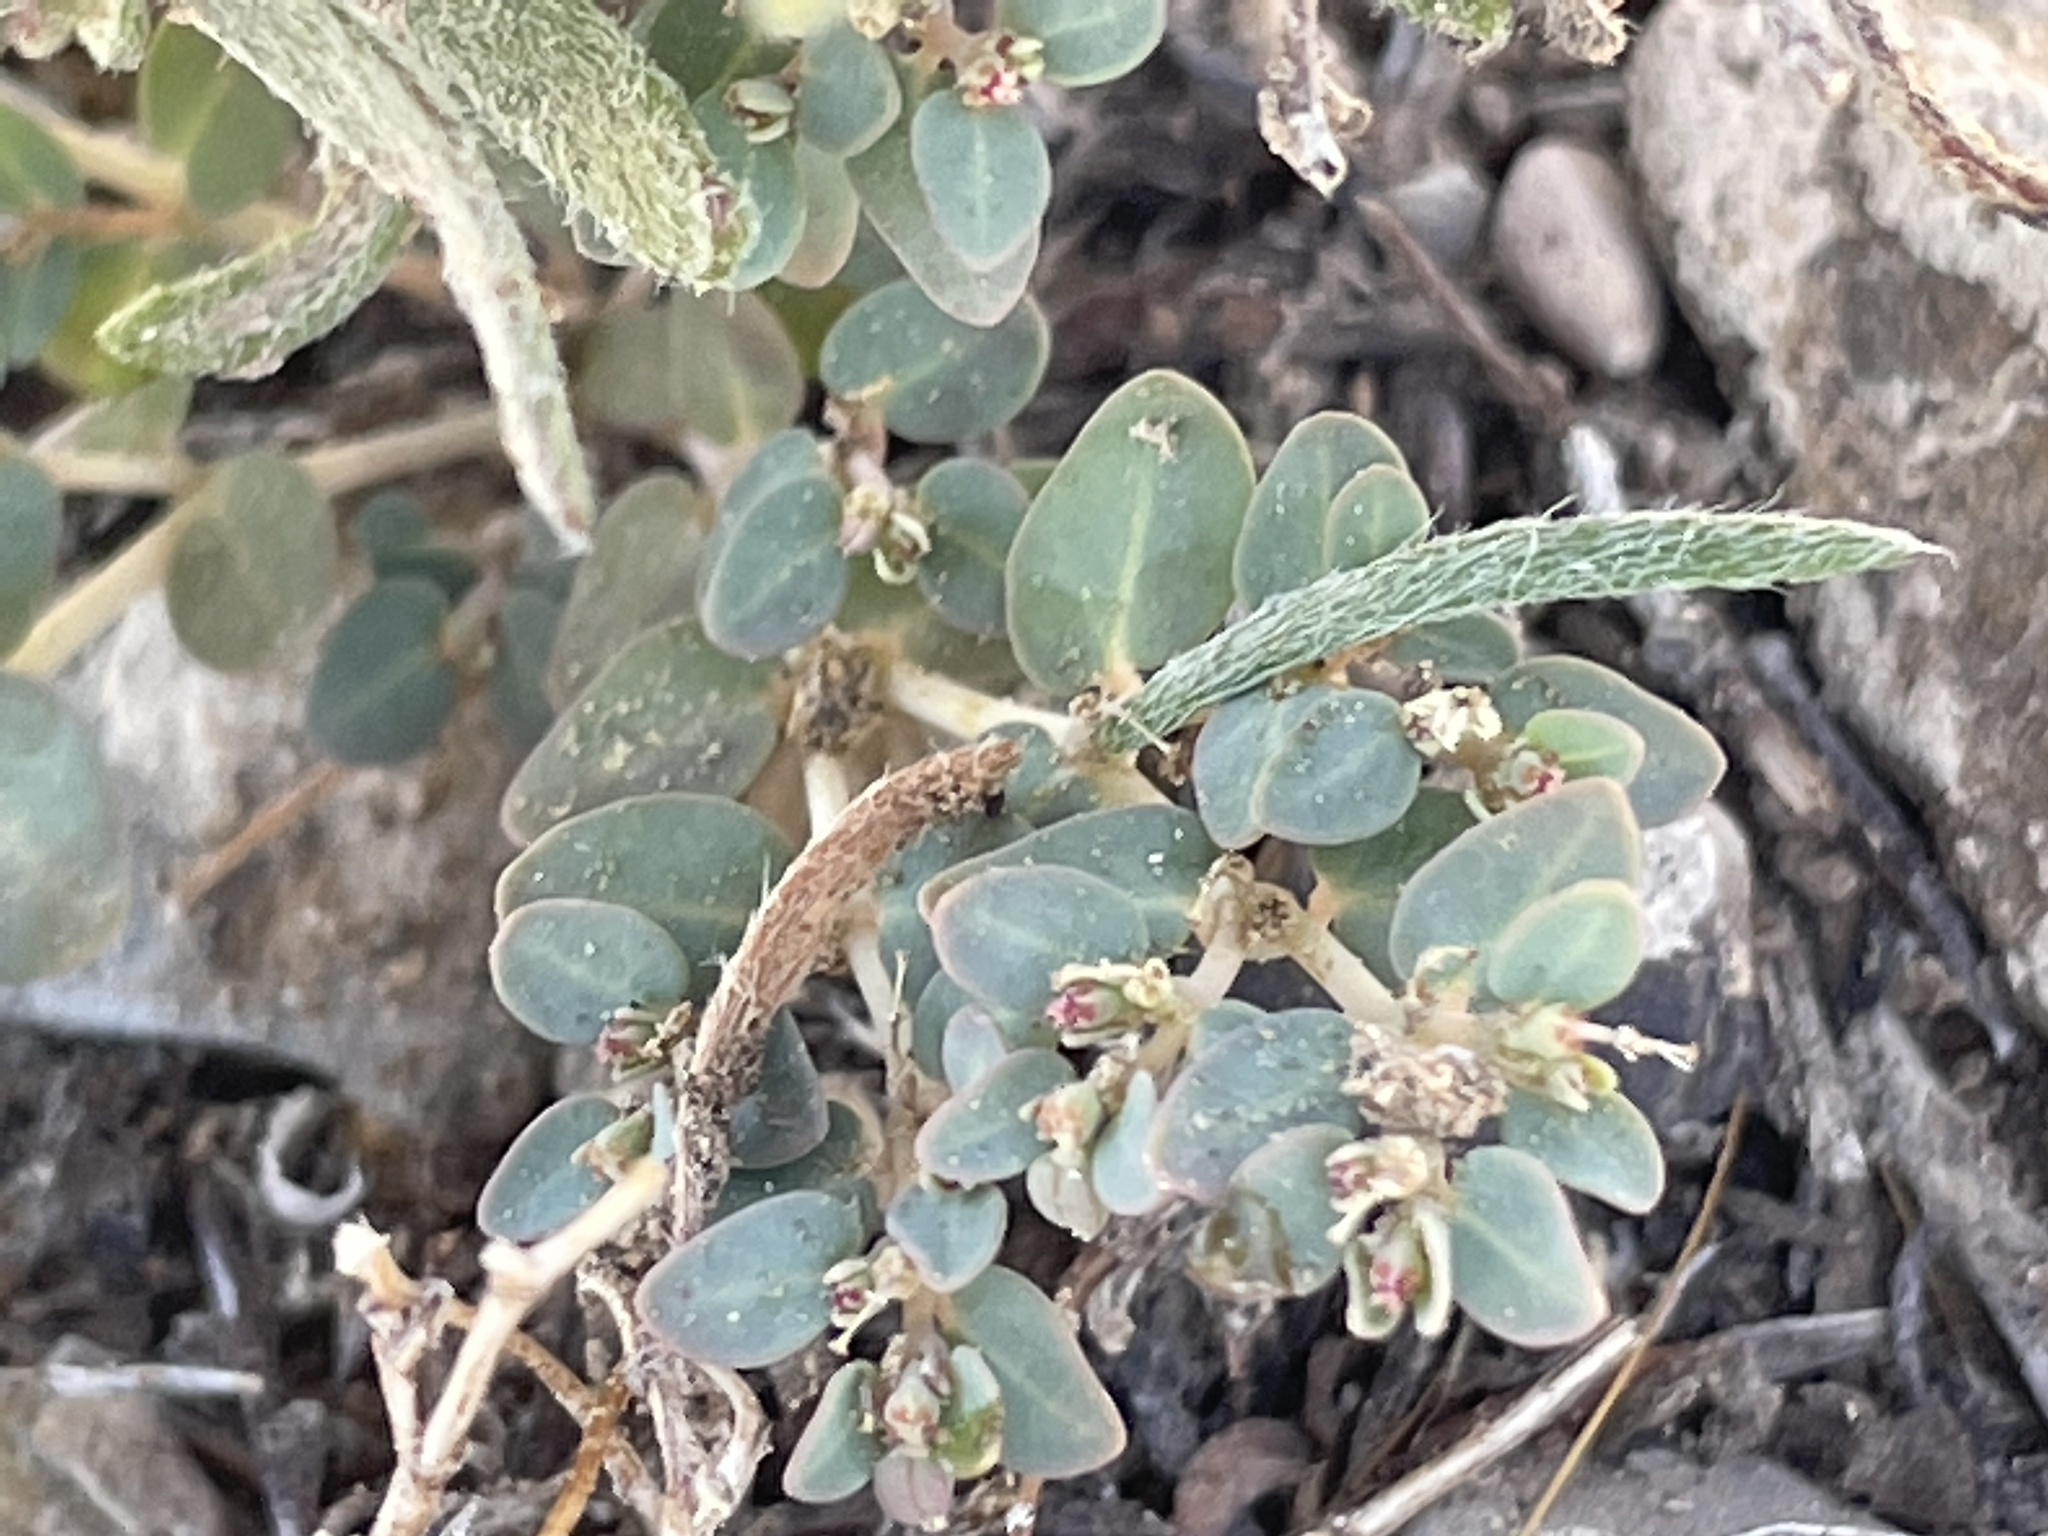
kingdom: Plantae
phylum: Tracheophyta
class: Magnoliopsida
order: Malpighiales
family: Euphorbiaceae
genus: Euphorbia
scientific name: Euphorbia micromera
